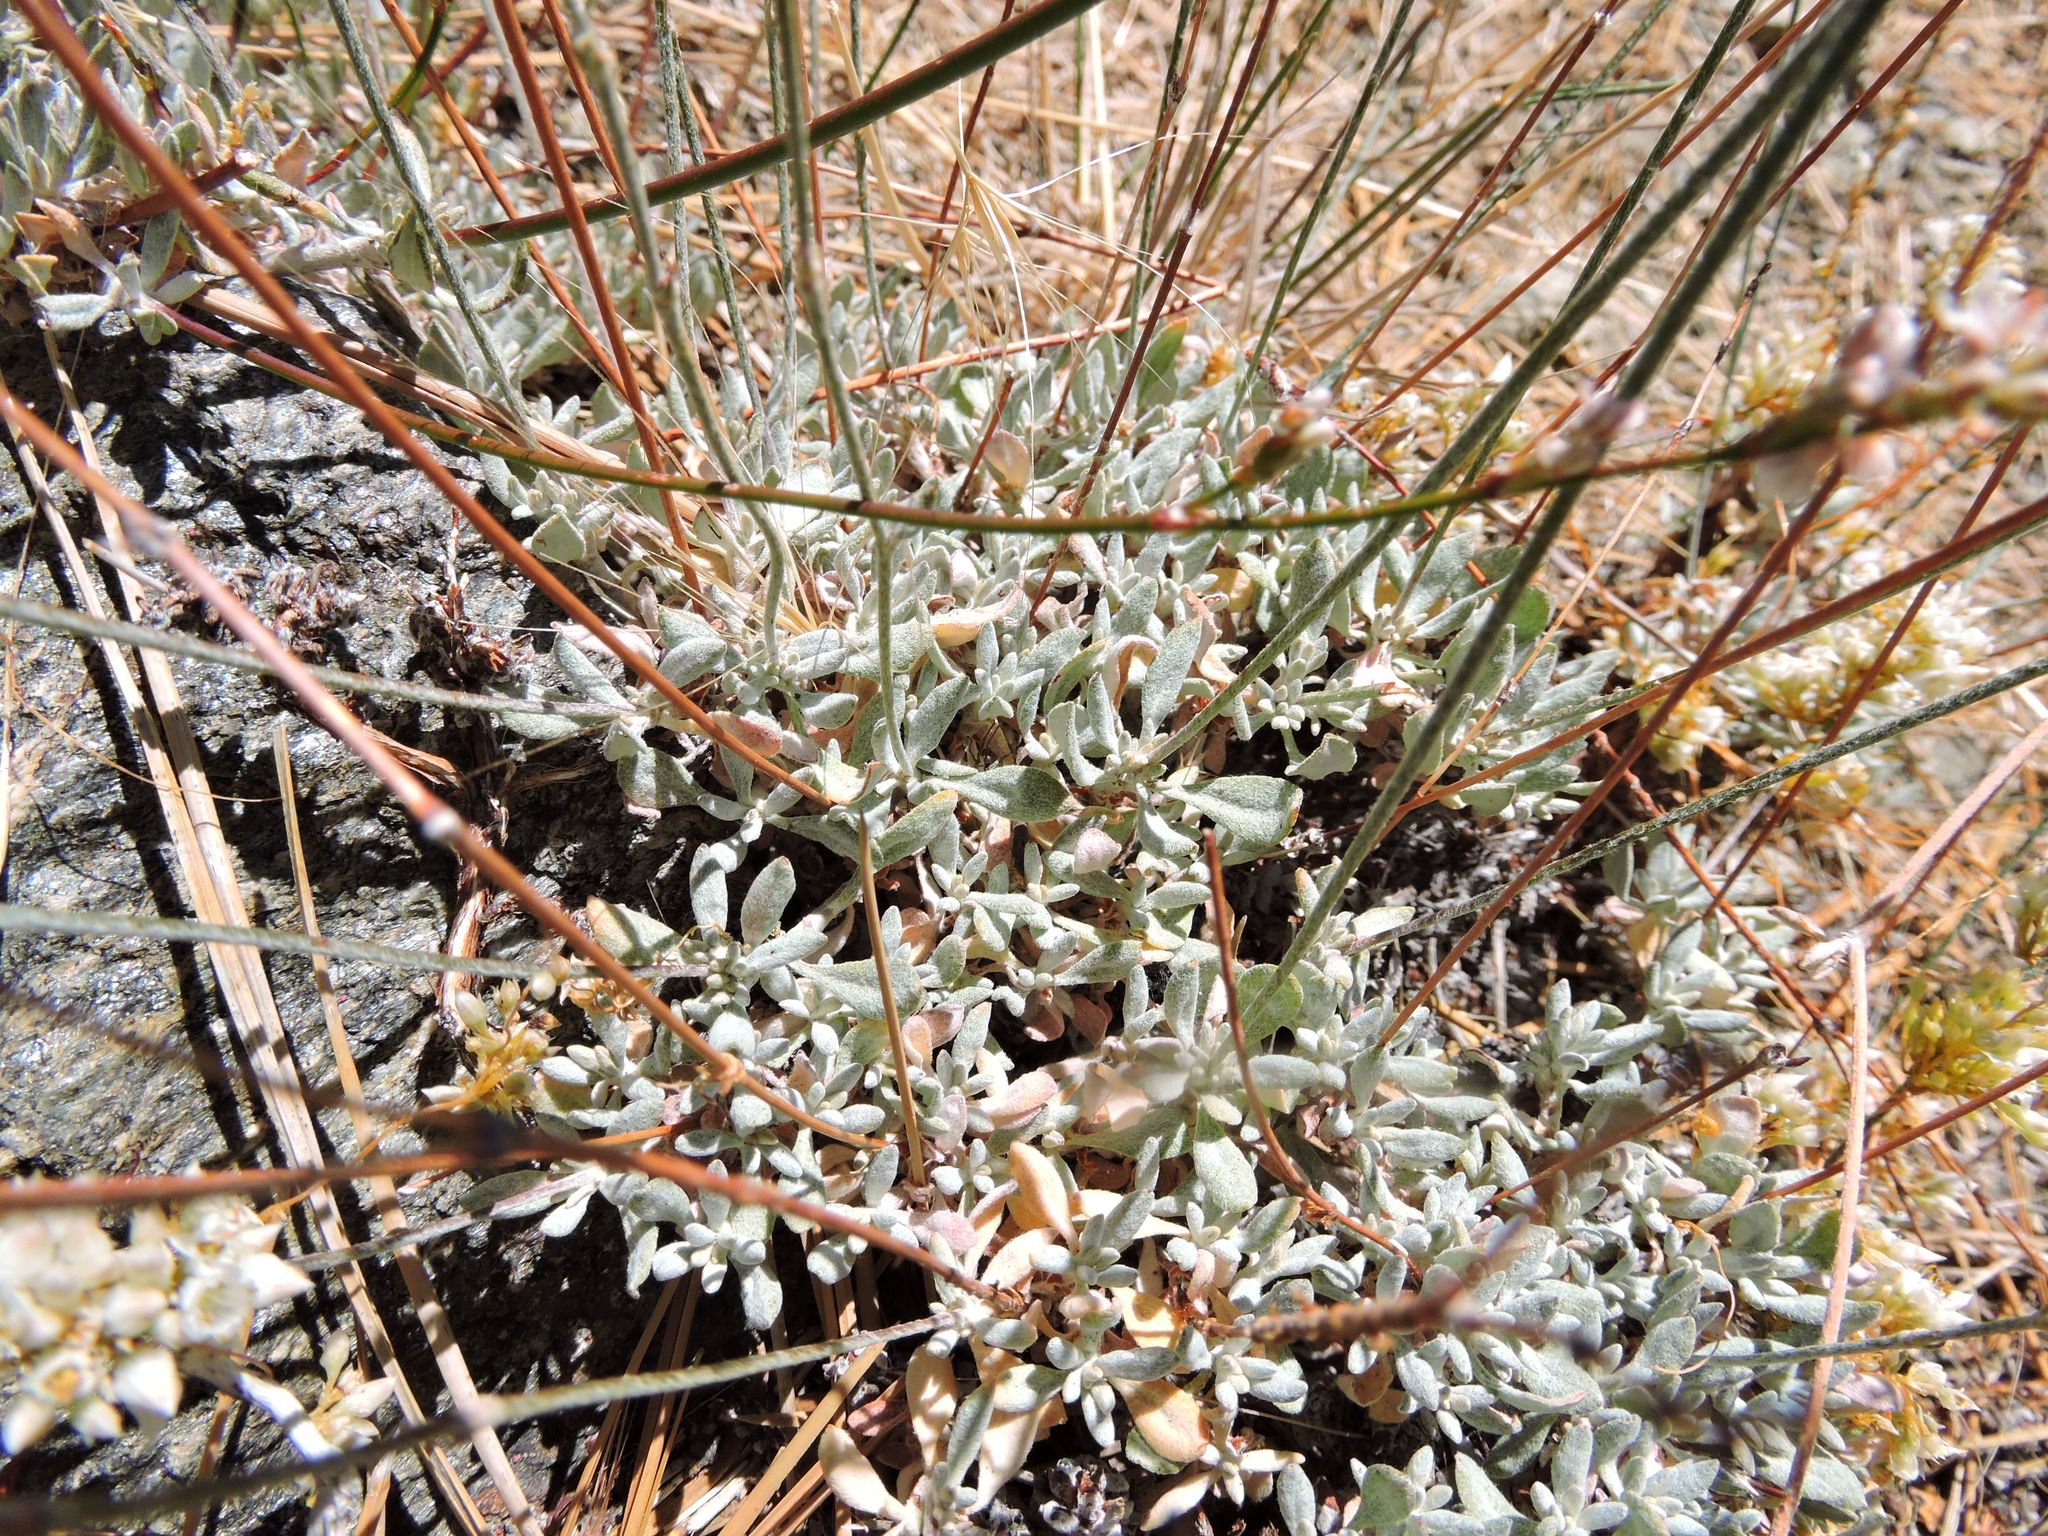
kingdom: Plantae
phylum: Tracheophyta
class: Magnoliopsida
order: Caryophyllales
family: Polygonaceae
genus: Eriogonum
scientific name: Eriogonum wrightii
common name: Bastard-sage
